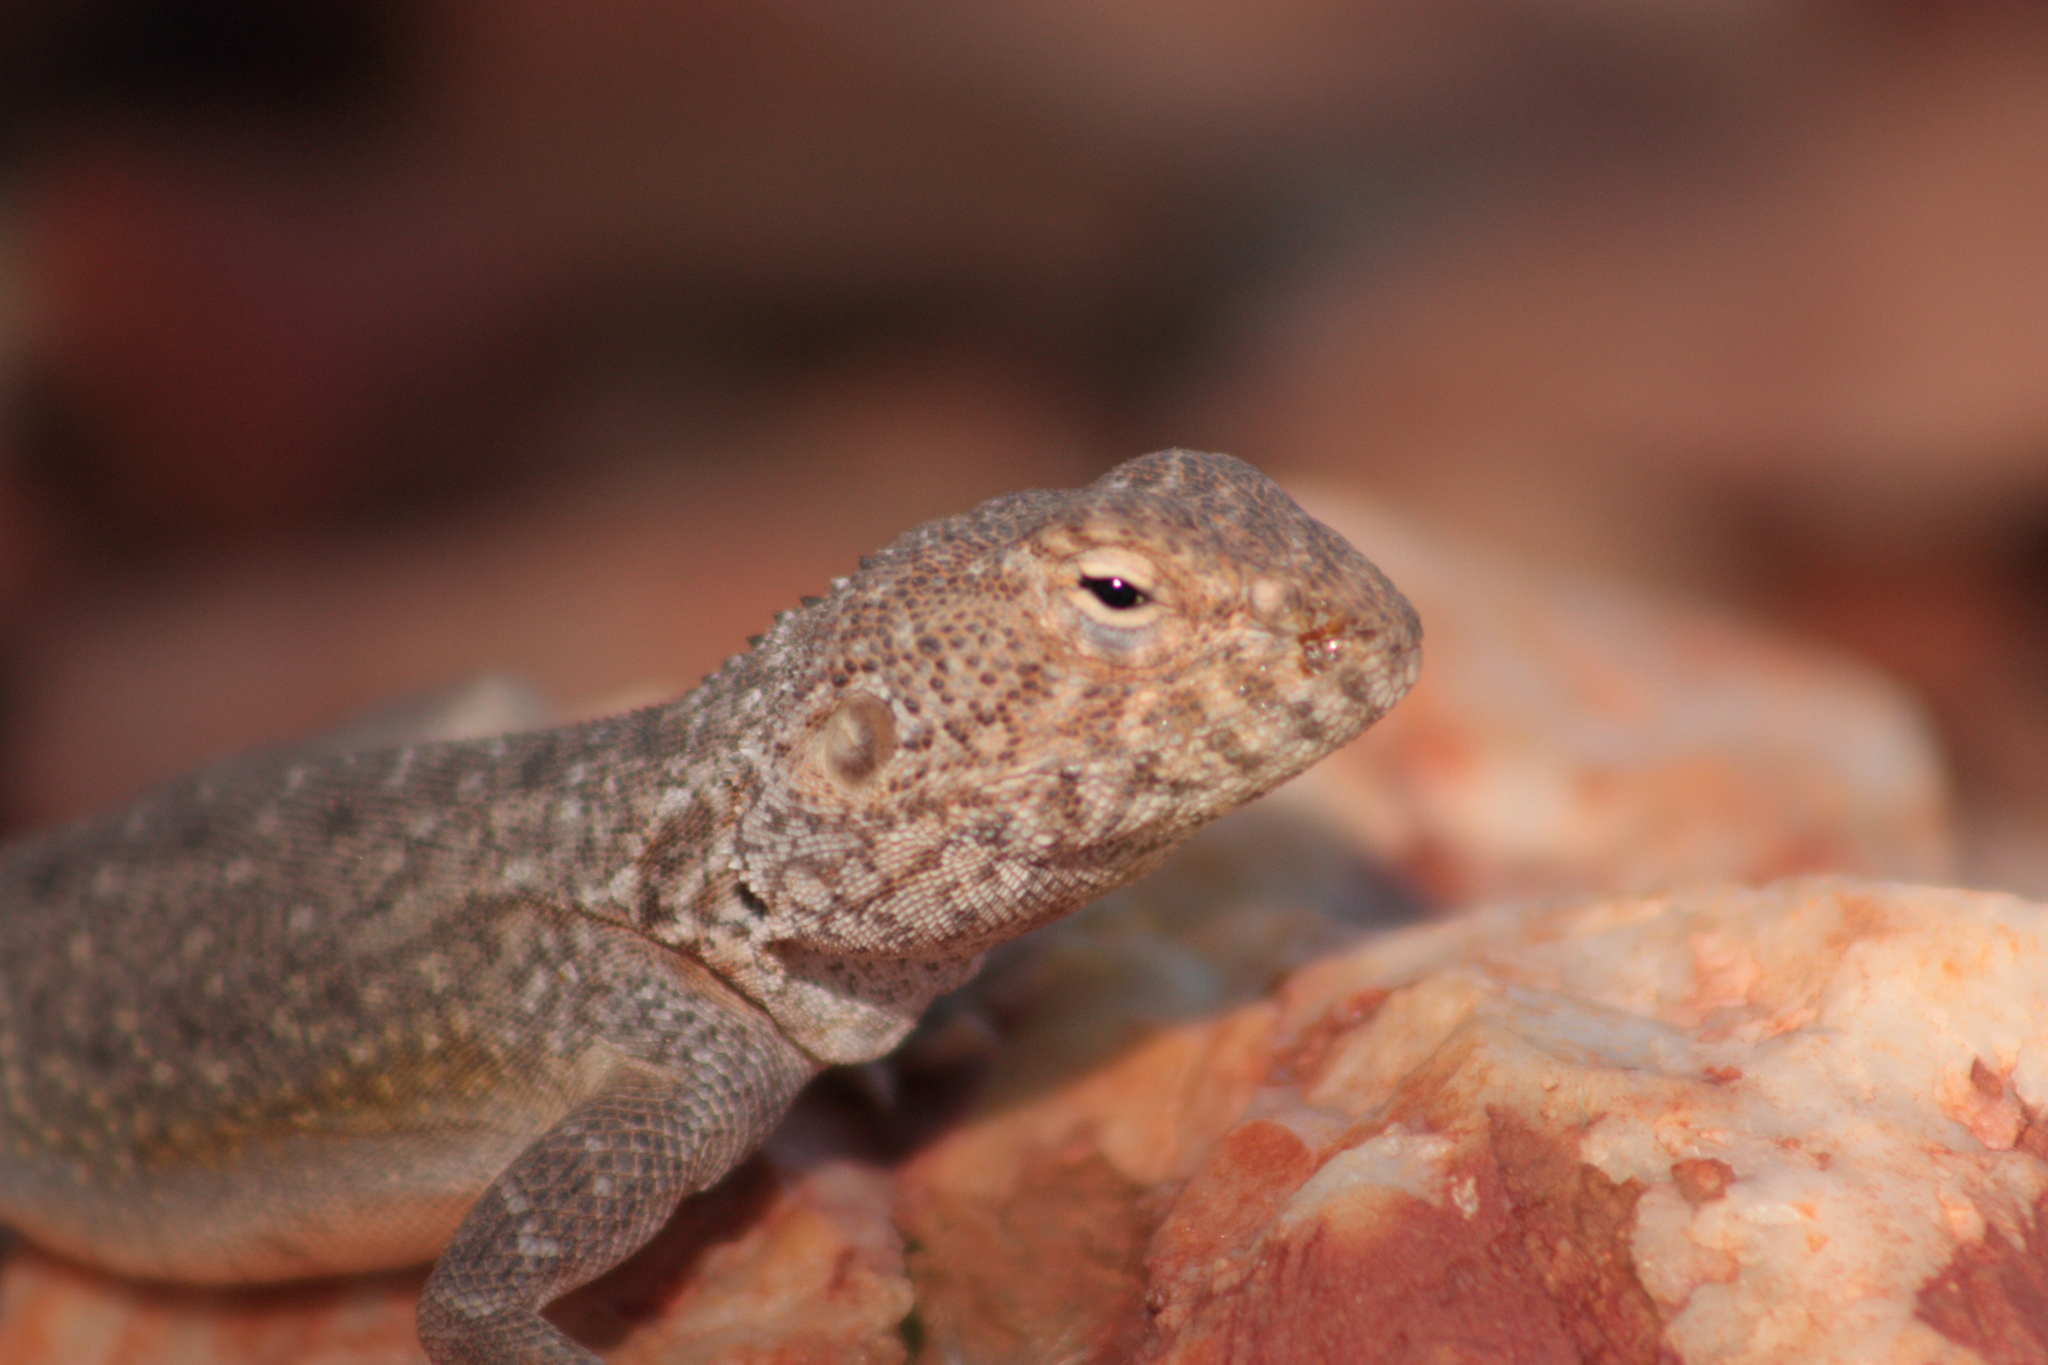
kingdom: Animalia
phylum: Chordata
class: Squamata
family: Agamidae
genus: Ctenophorus
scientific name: Ctenophorus slateri
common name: Slater’s dragon
